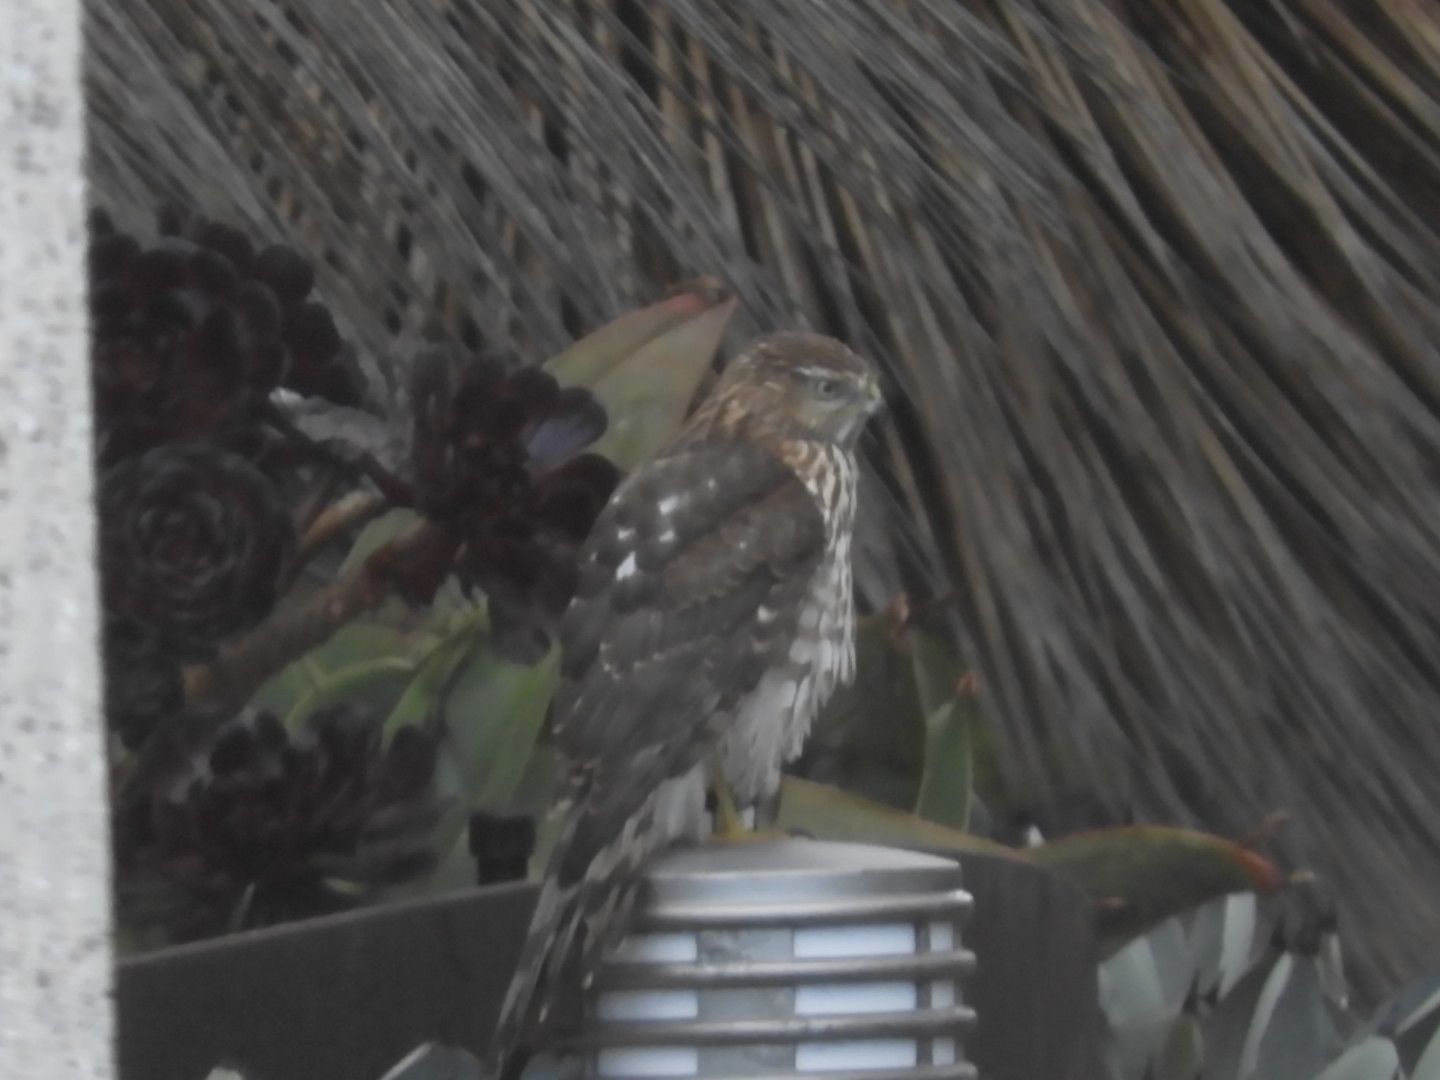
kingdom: Animalia
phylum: Chordata
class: Aves
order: Accipitriformes
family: Accipitridae
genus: Accipiter
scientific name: Accipiter cooperii
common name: Cooper's hawk
